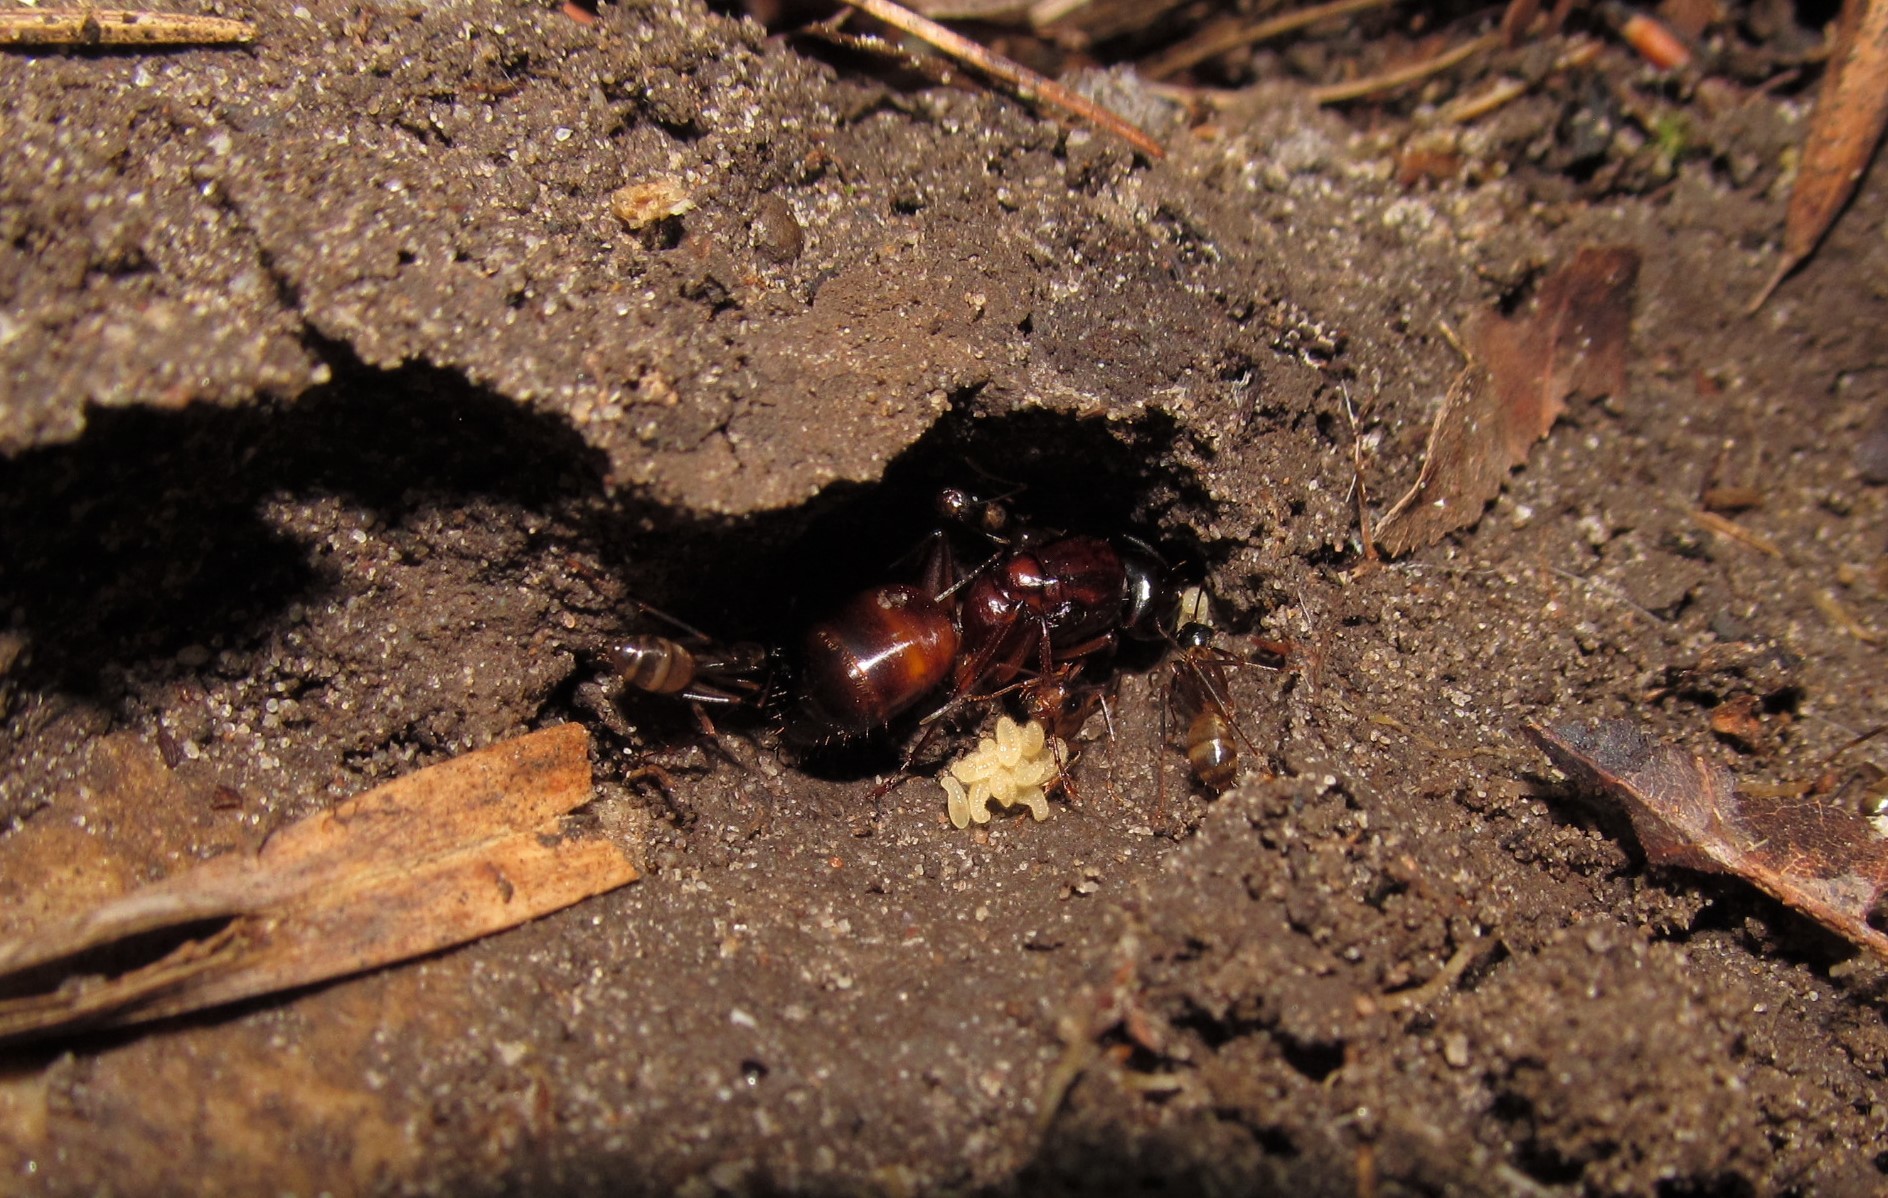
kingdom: Animalia
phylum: Arthropoda
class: Insecta
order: Hymenoptera
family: Formicidae
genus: Camponotus
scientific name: Camponotus americanus
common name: American carpenter ant
